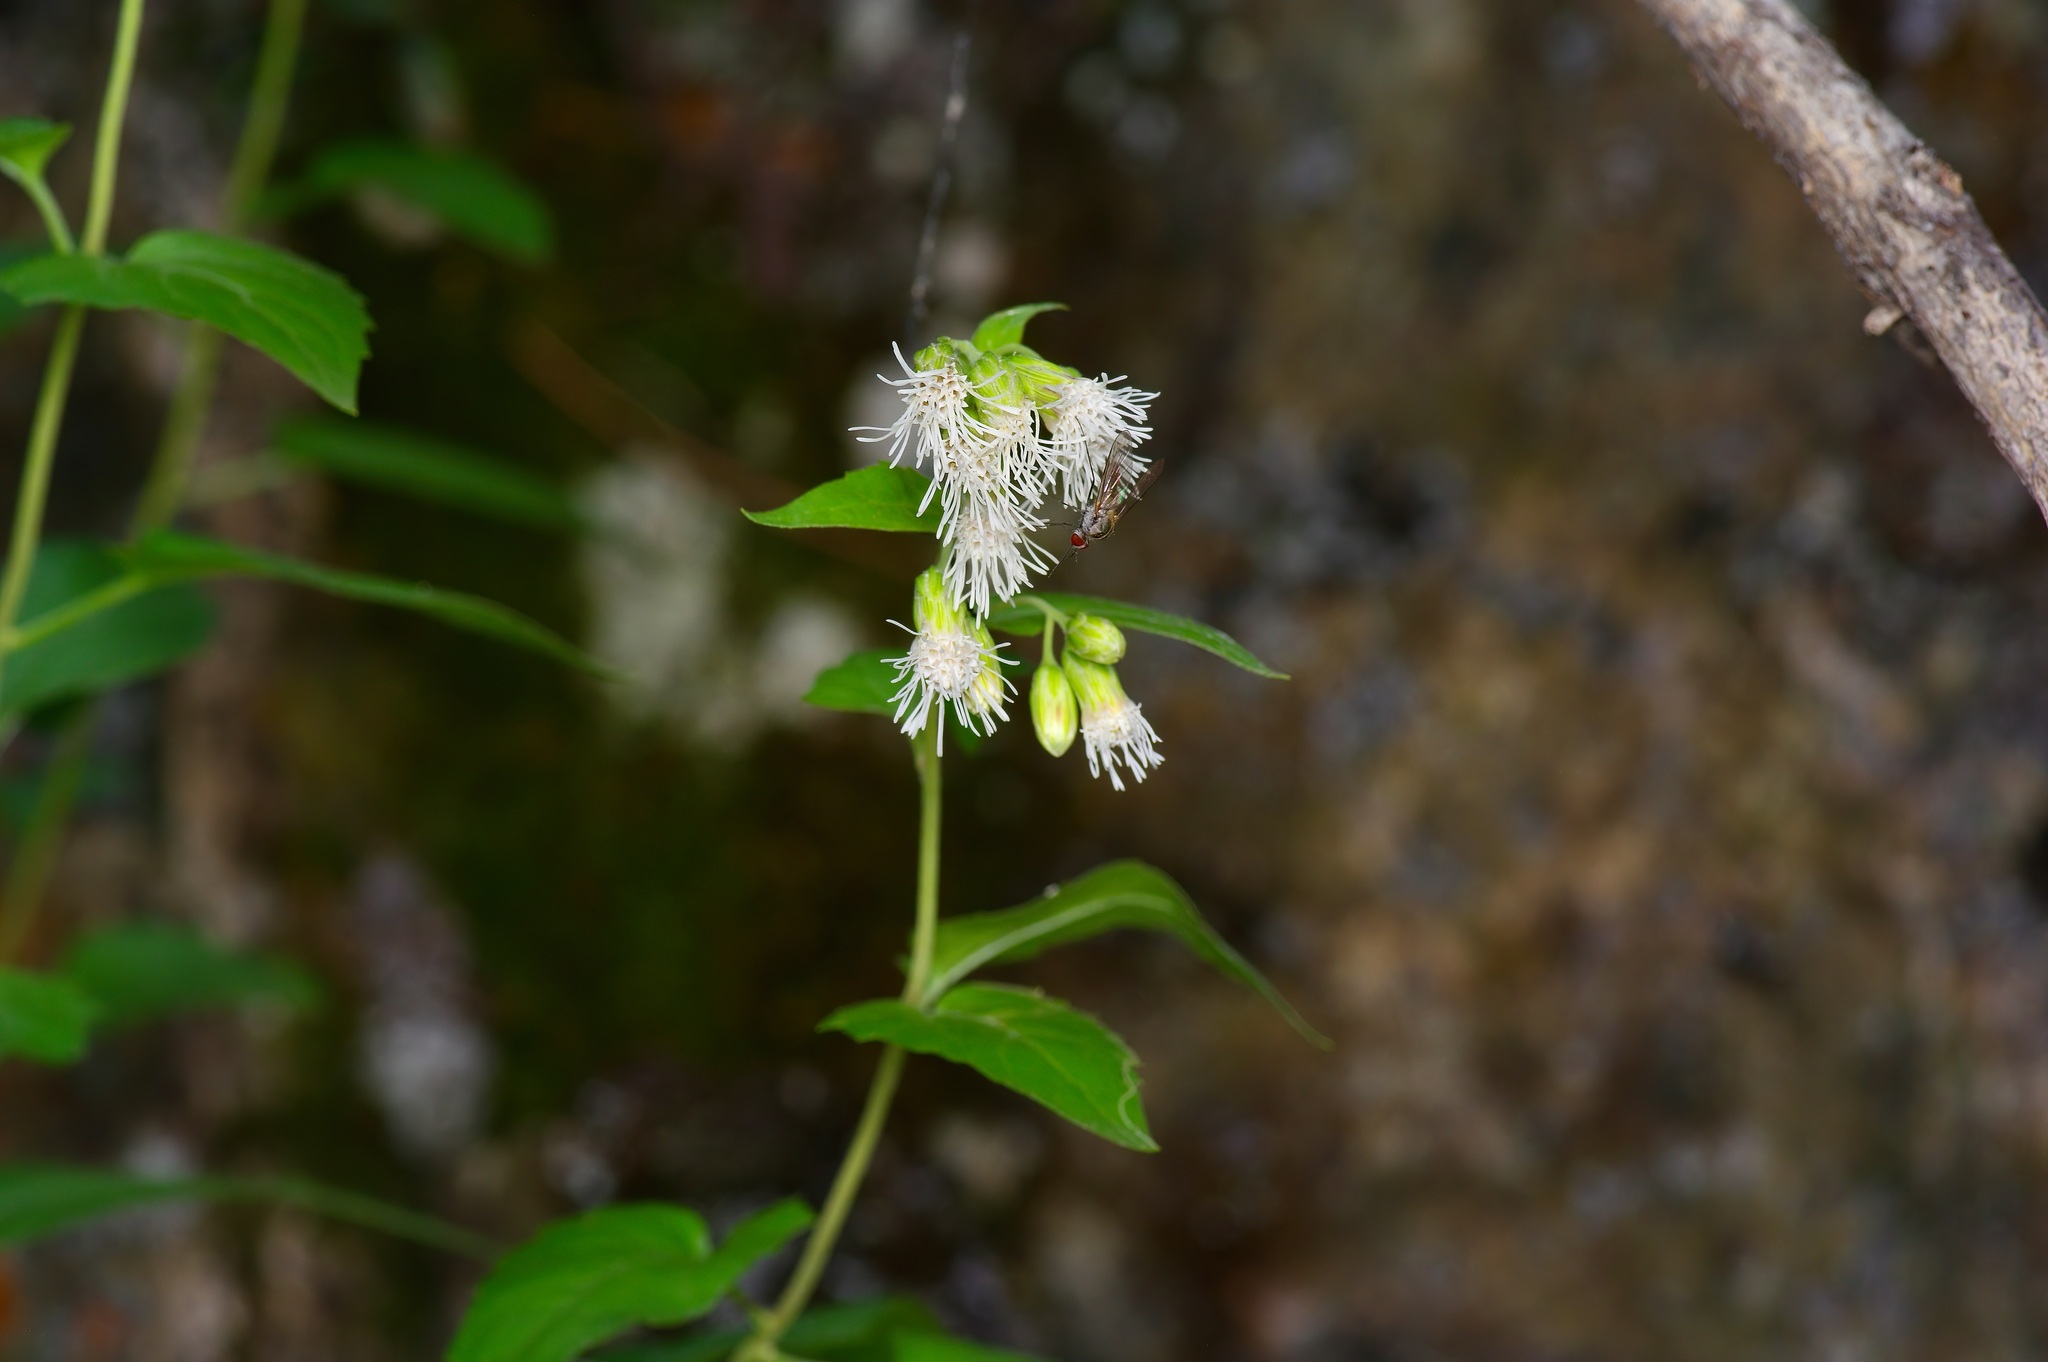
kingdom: Plantae
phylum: Tracheophyta
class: Magnoliopsida
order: Asterales
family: Asteraceae
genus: Brickelliastrum
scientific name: Brickelliastrum fendleri
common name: Fendler's-brickellbush
